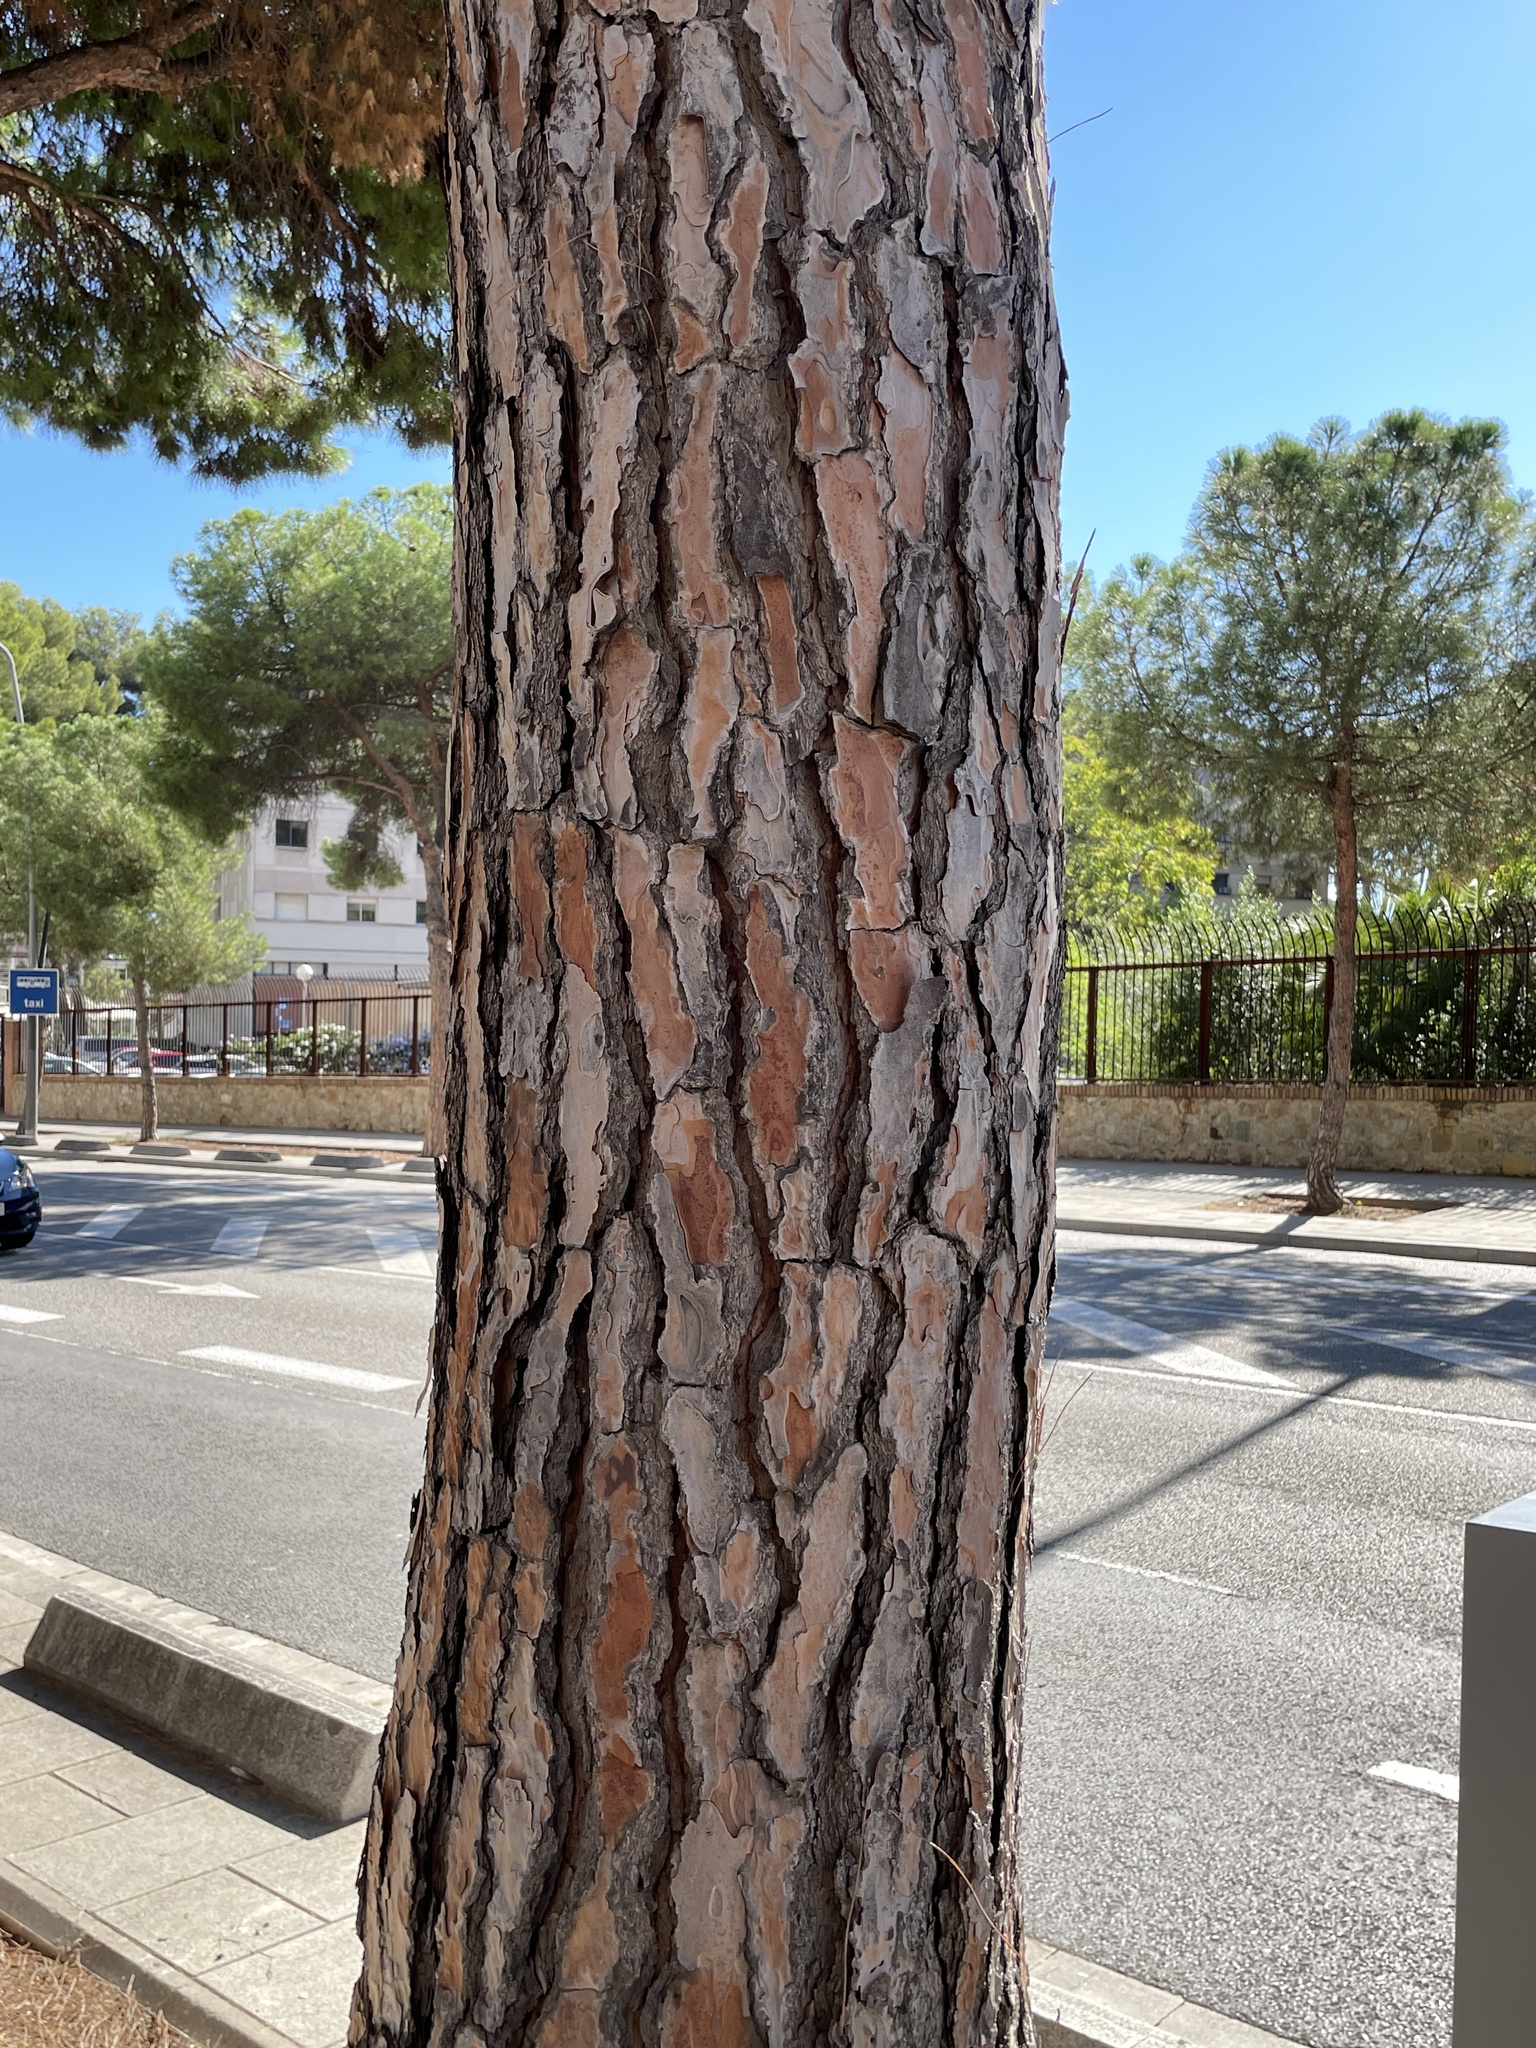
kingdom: Plantae
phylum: Tracheophyta
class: Pinopsida
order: Pinales
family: Pinaceae
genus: Pinus
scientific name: Pinus pinea
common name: Italian stone pine
